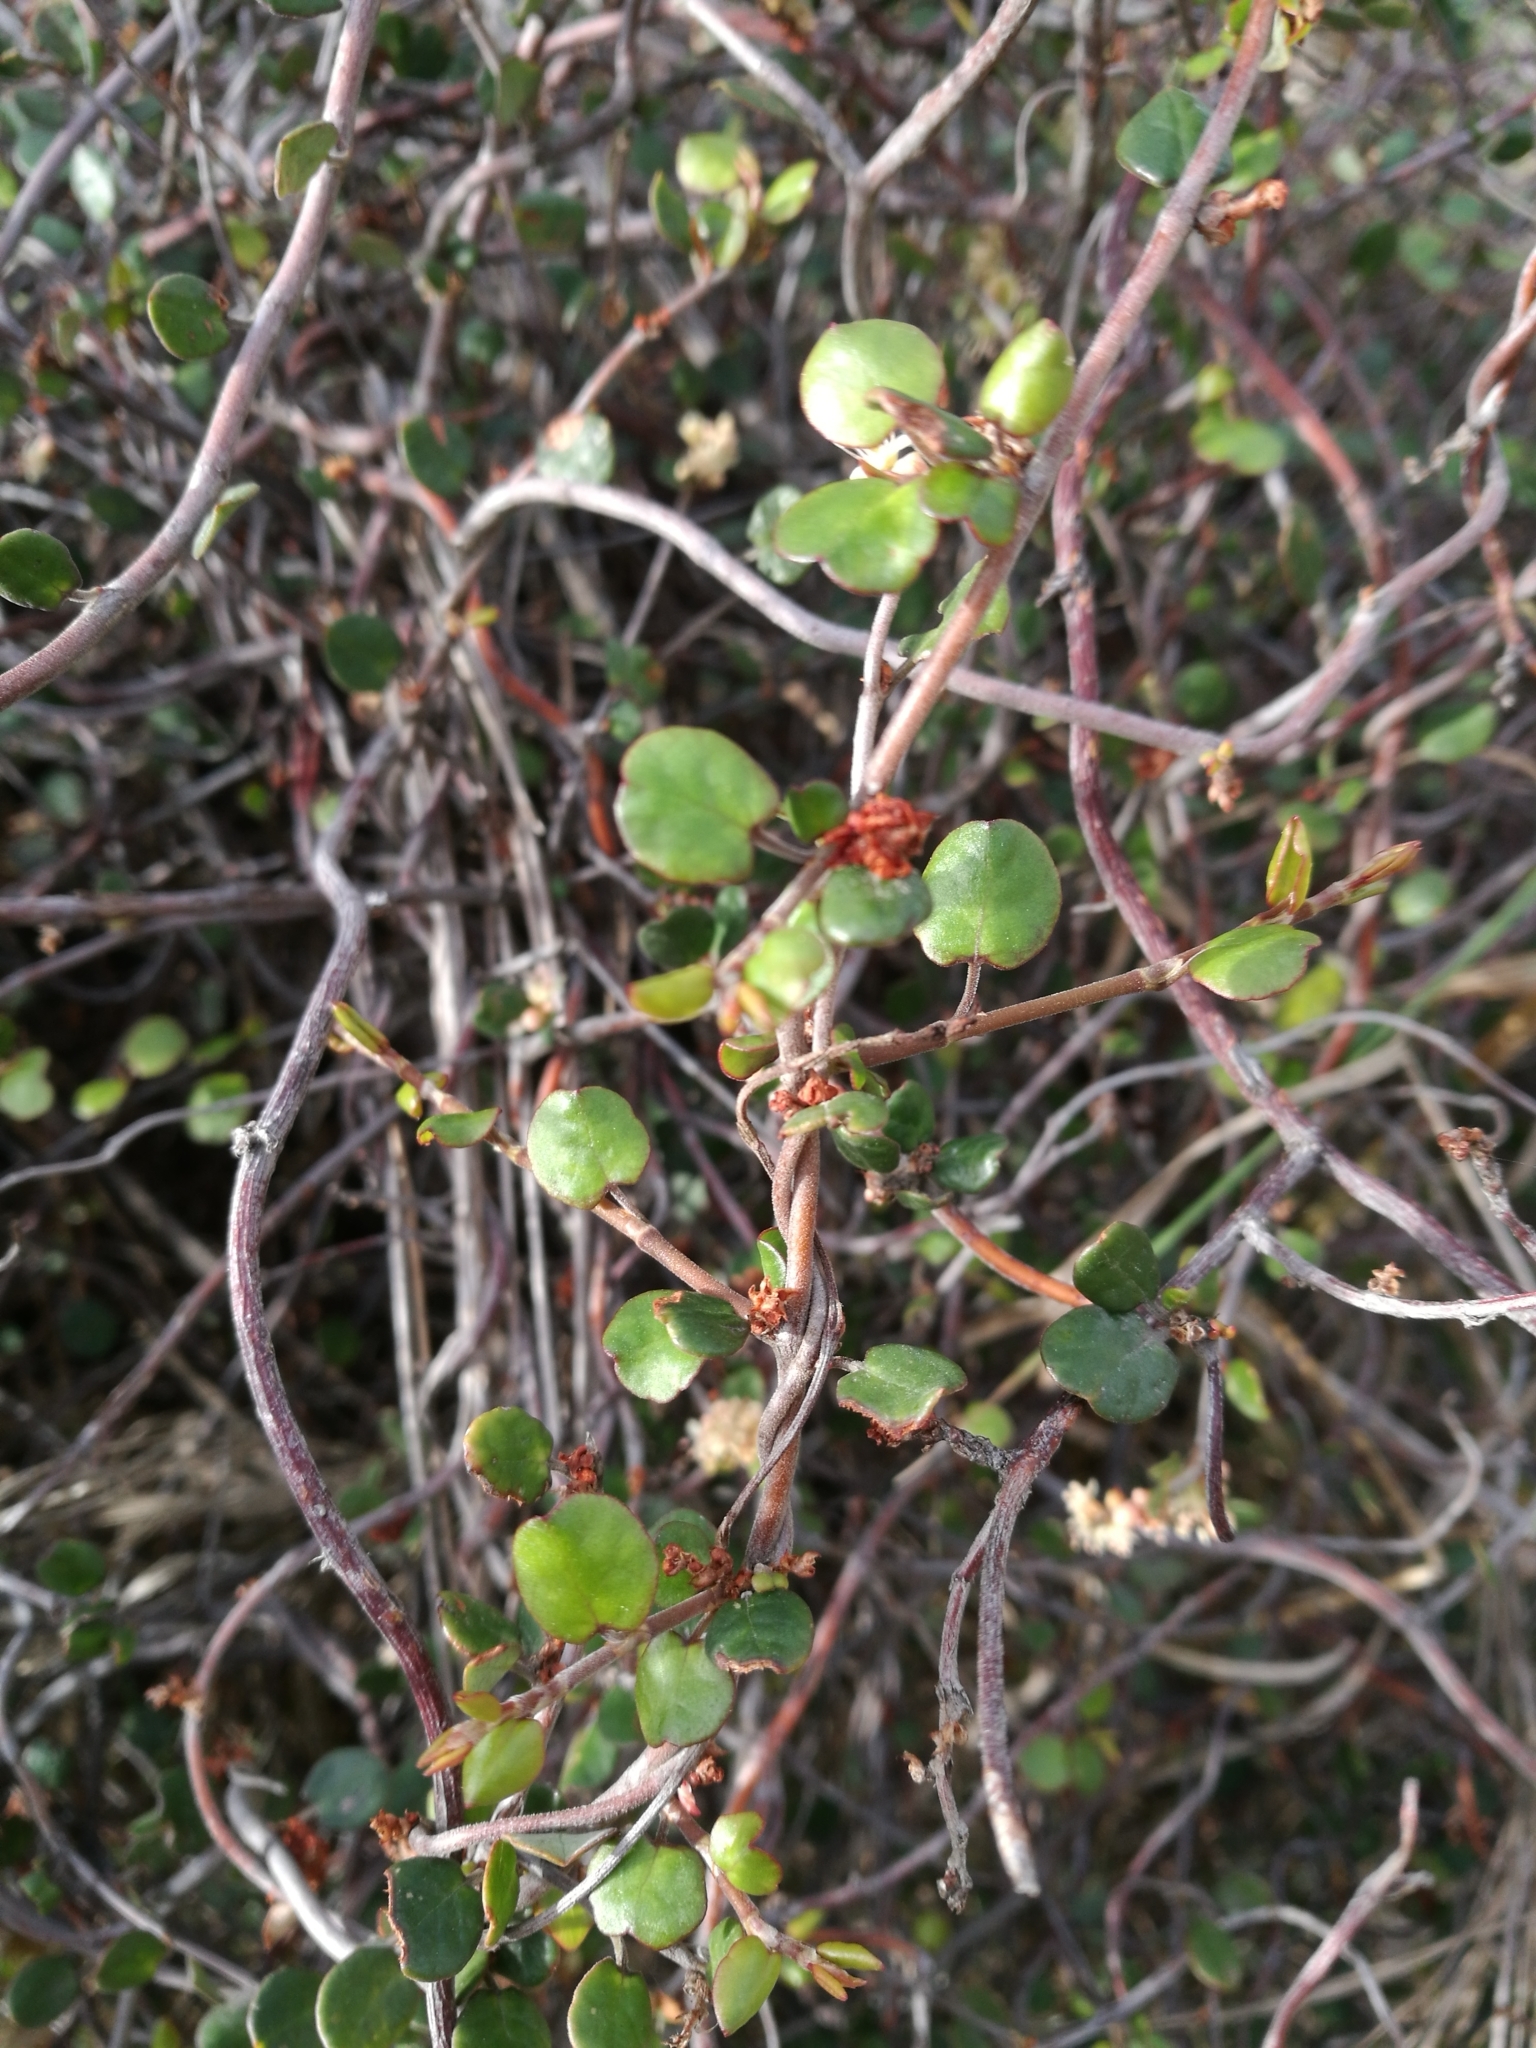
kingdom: Plantae
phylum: Tracheophyta
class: Magnoliopsida
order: Caryophyllales
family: Polygonaceae
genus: Muehlenbeckia
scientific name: Muehlenbeckia complexa
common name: Wireplant
